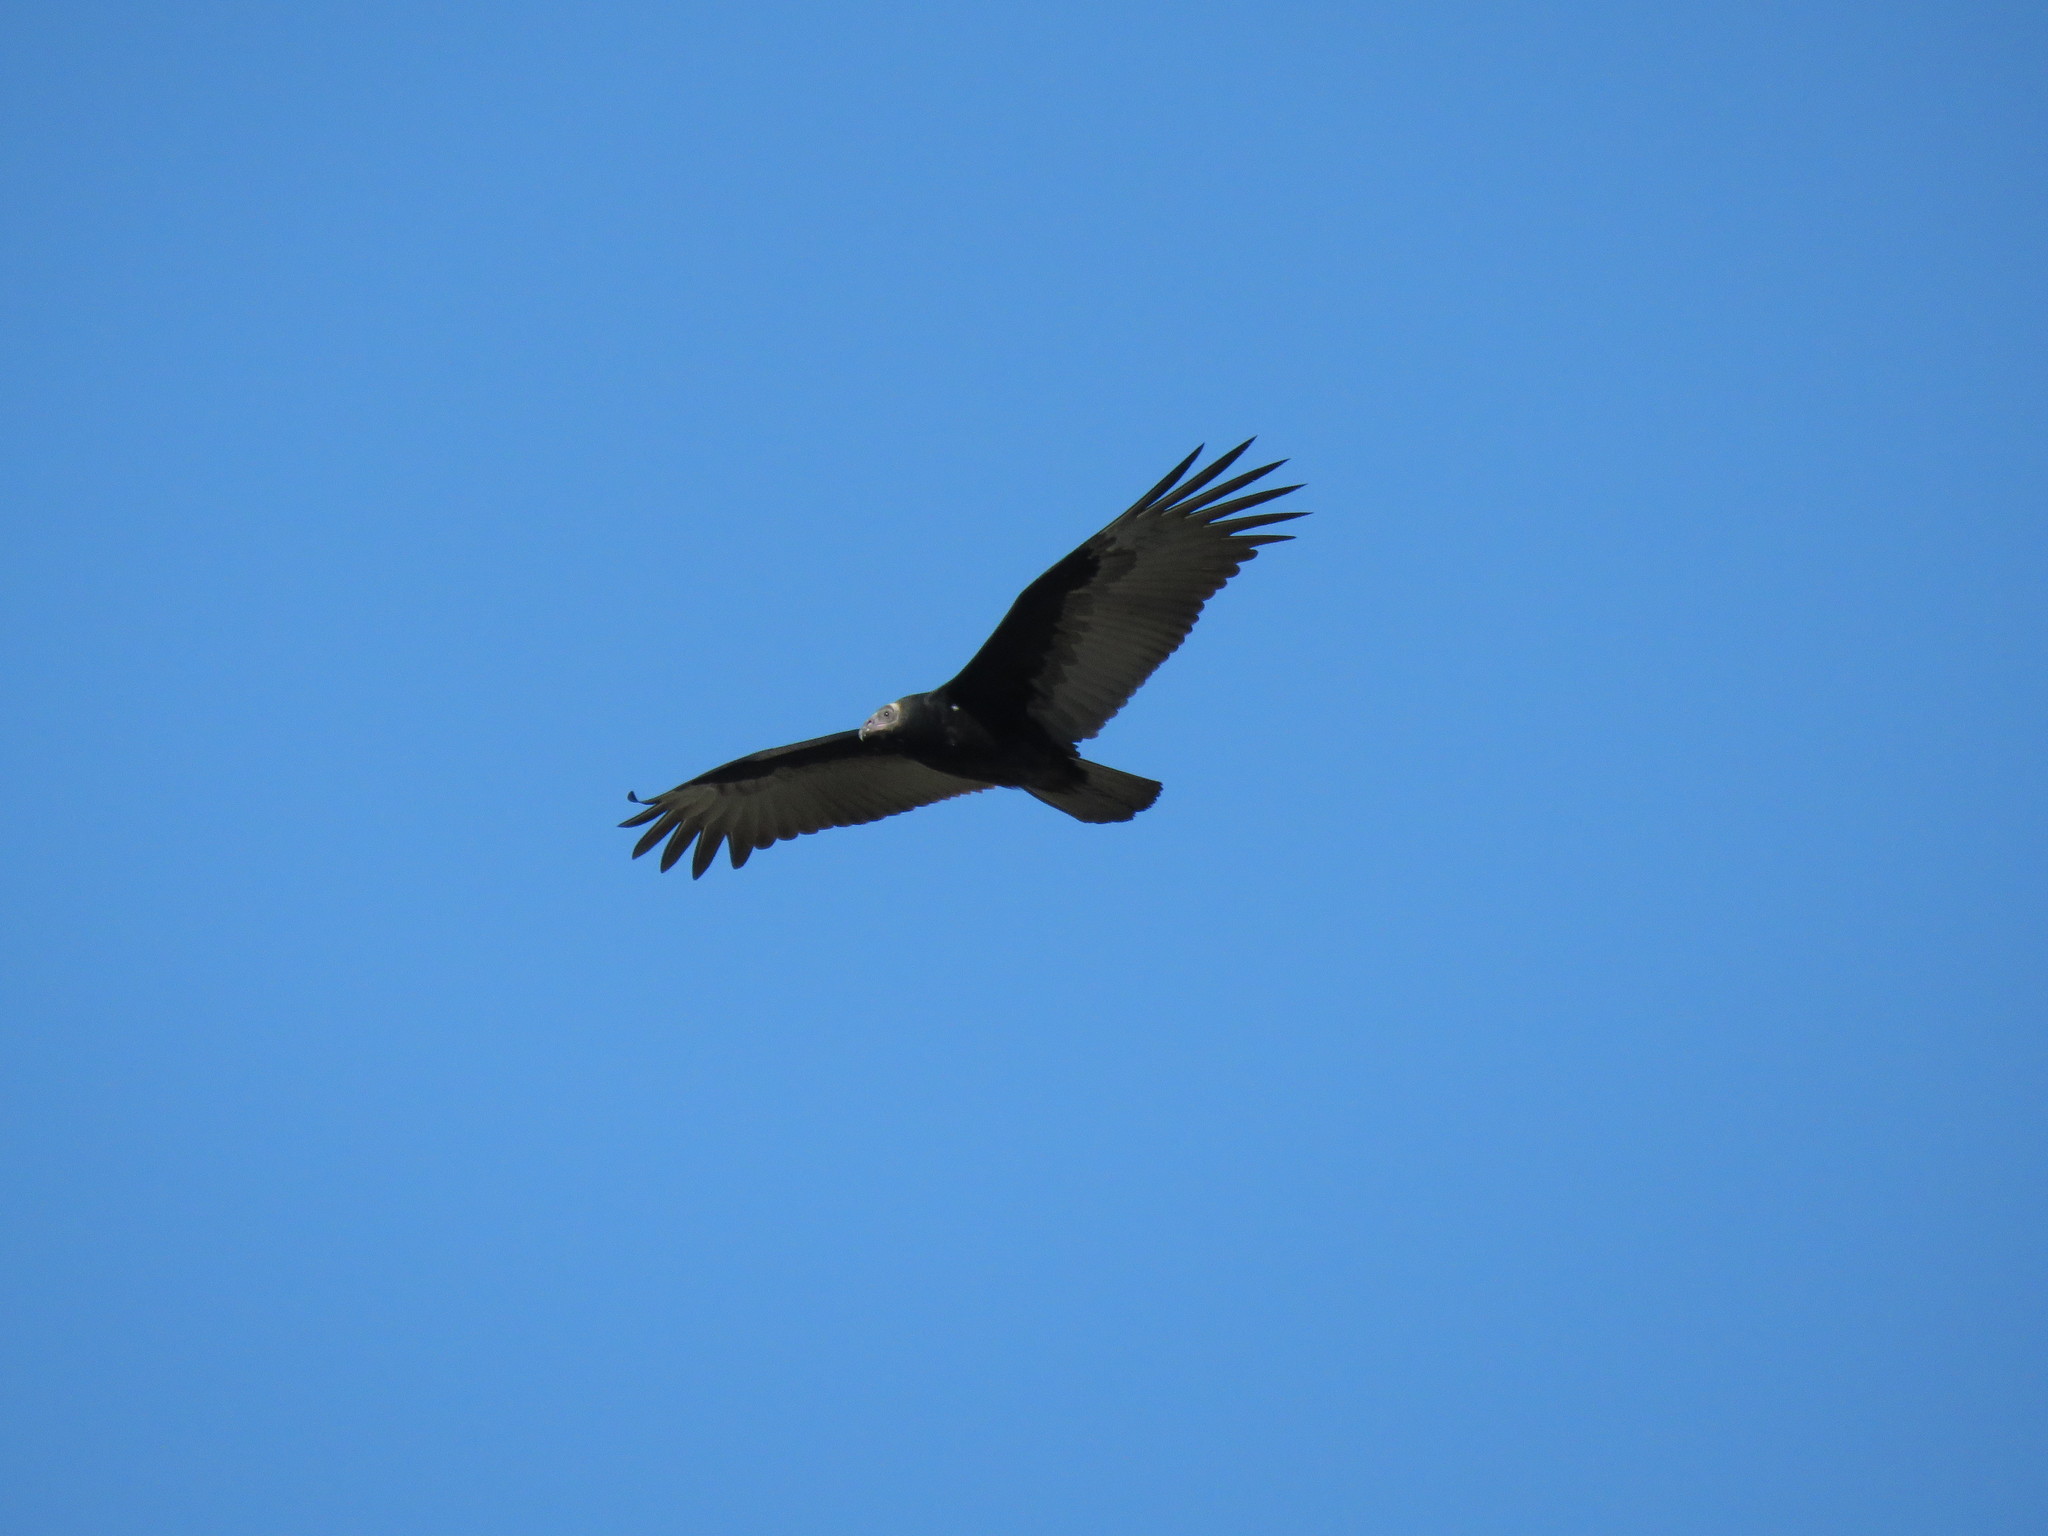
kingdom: Animalia
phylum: Chordata
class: Aves
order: Accipitriformes
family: Cathartidae
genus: Cathartes
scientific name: Cathartes aura
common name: Turkey vulture
